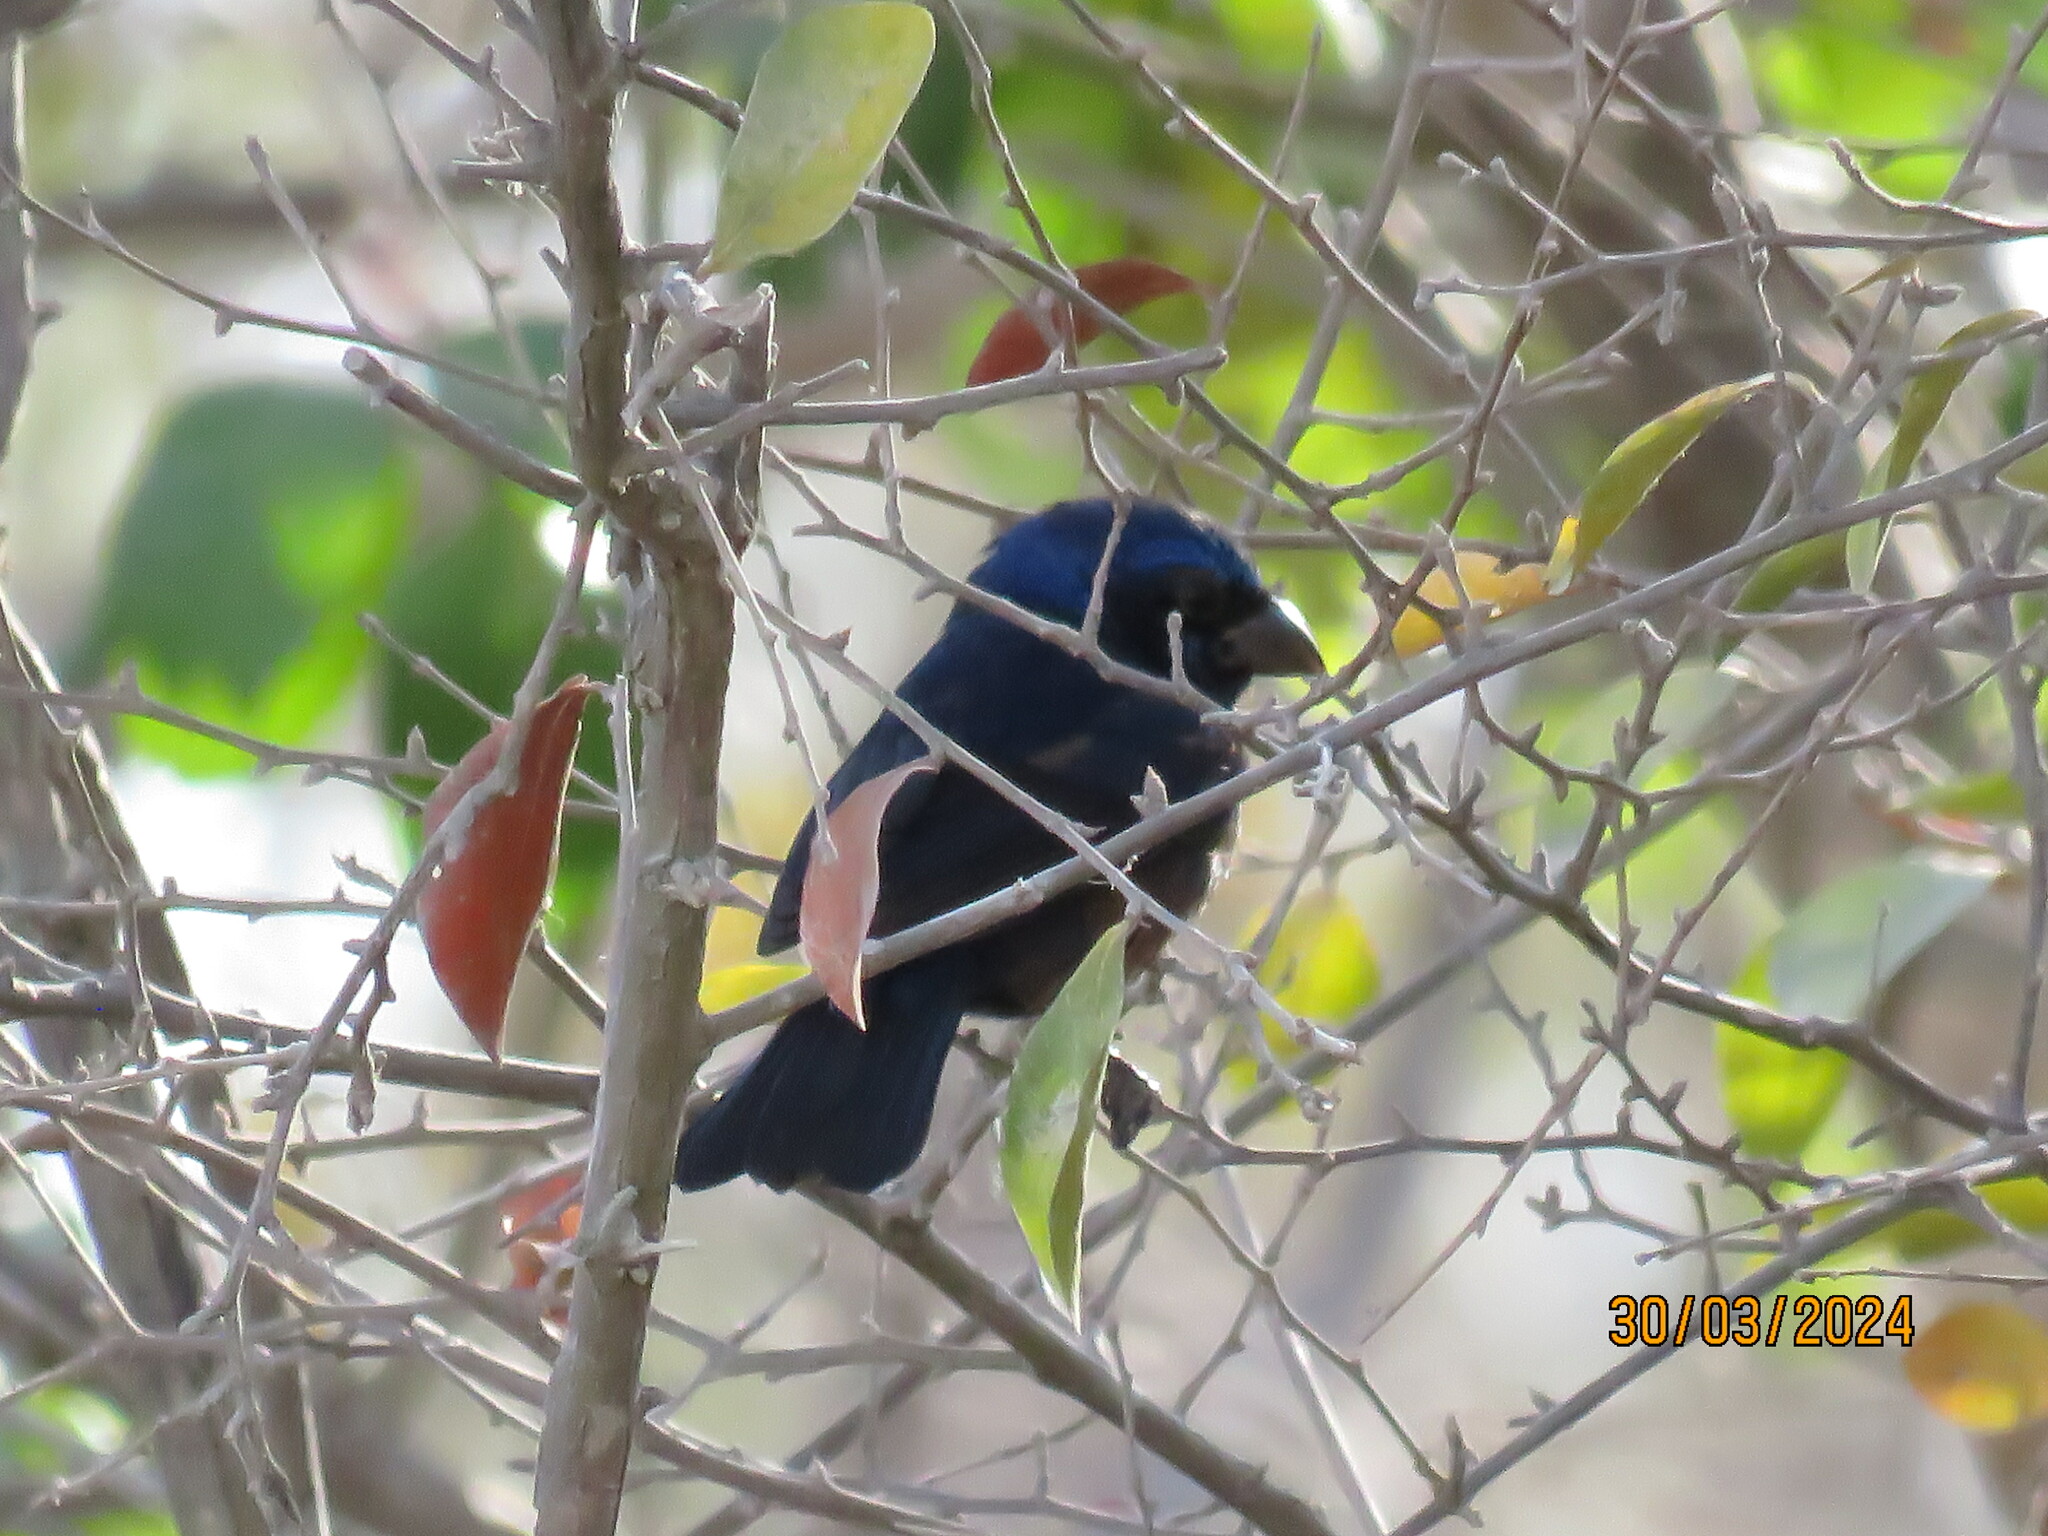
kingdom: Animalia
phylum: Chordata
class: Aves
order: Passeriformes
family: Cardinalidae
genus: Cyanocompsa
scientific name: Cyanocompsa parellina
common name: Blue bunting
